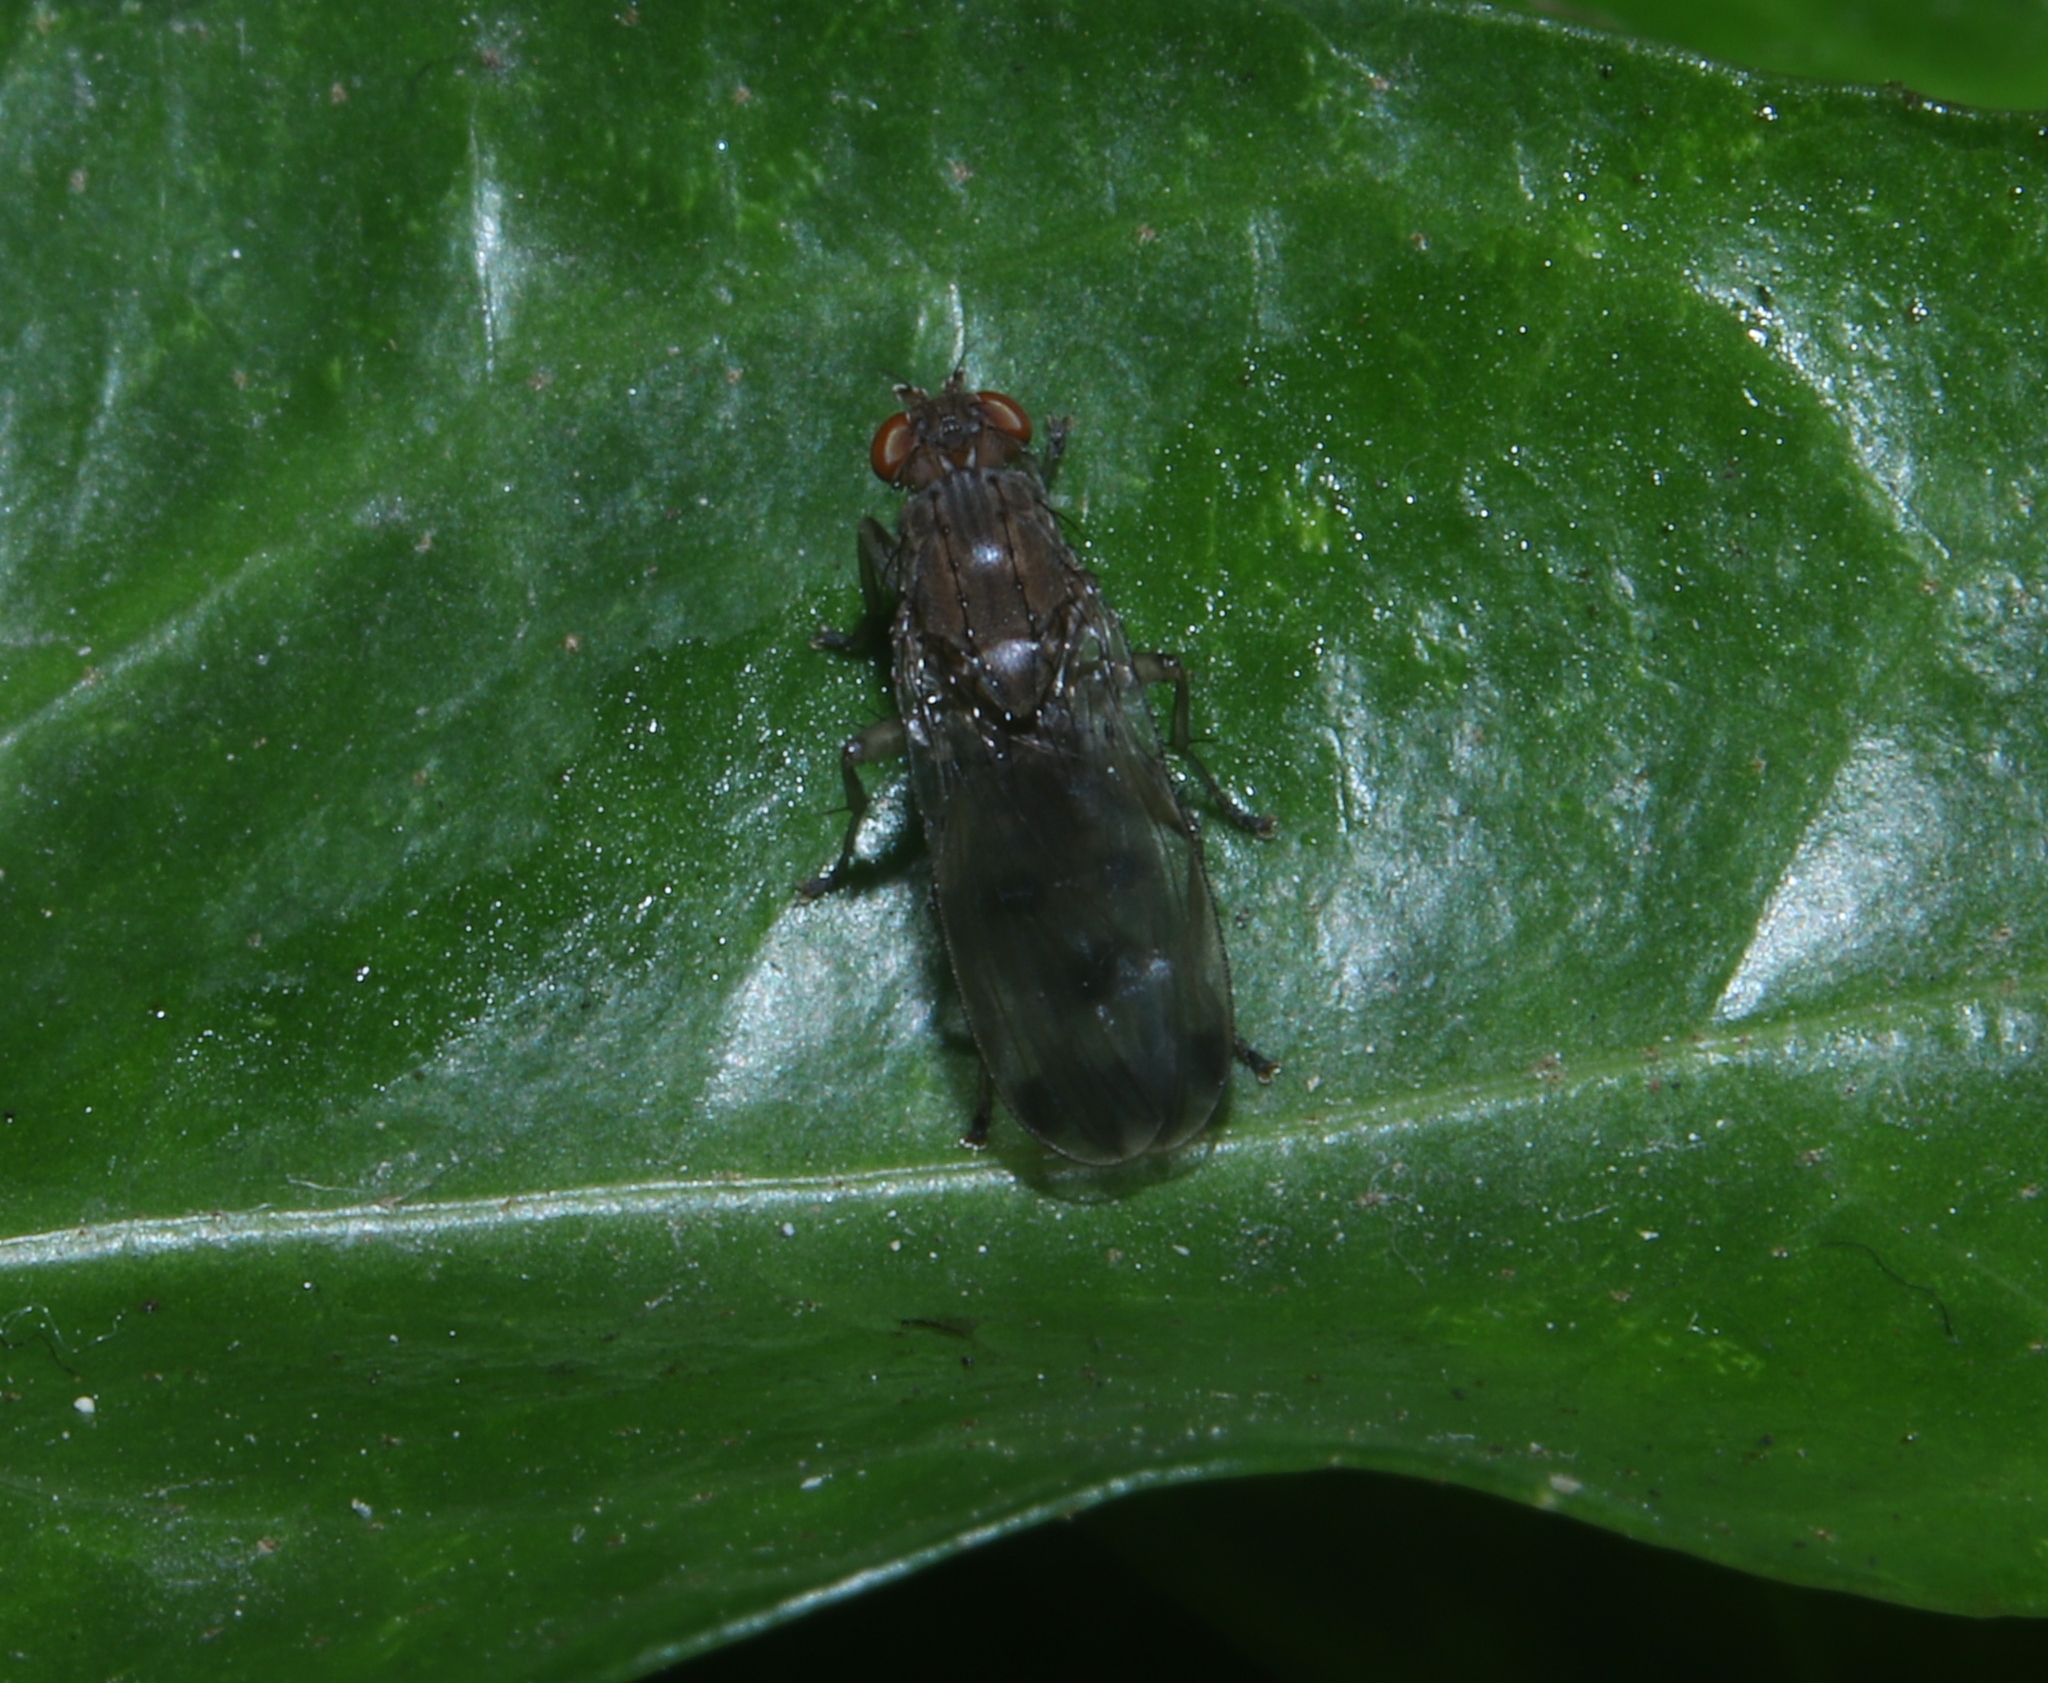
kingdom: Animalia
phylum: Arthropoda
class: Insecta
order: Diptera
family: Heleomyzidae
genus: Suillia
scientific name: Suillia variegata
